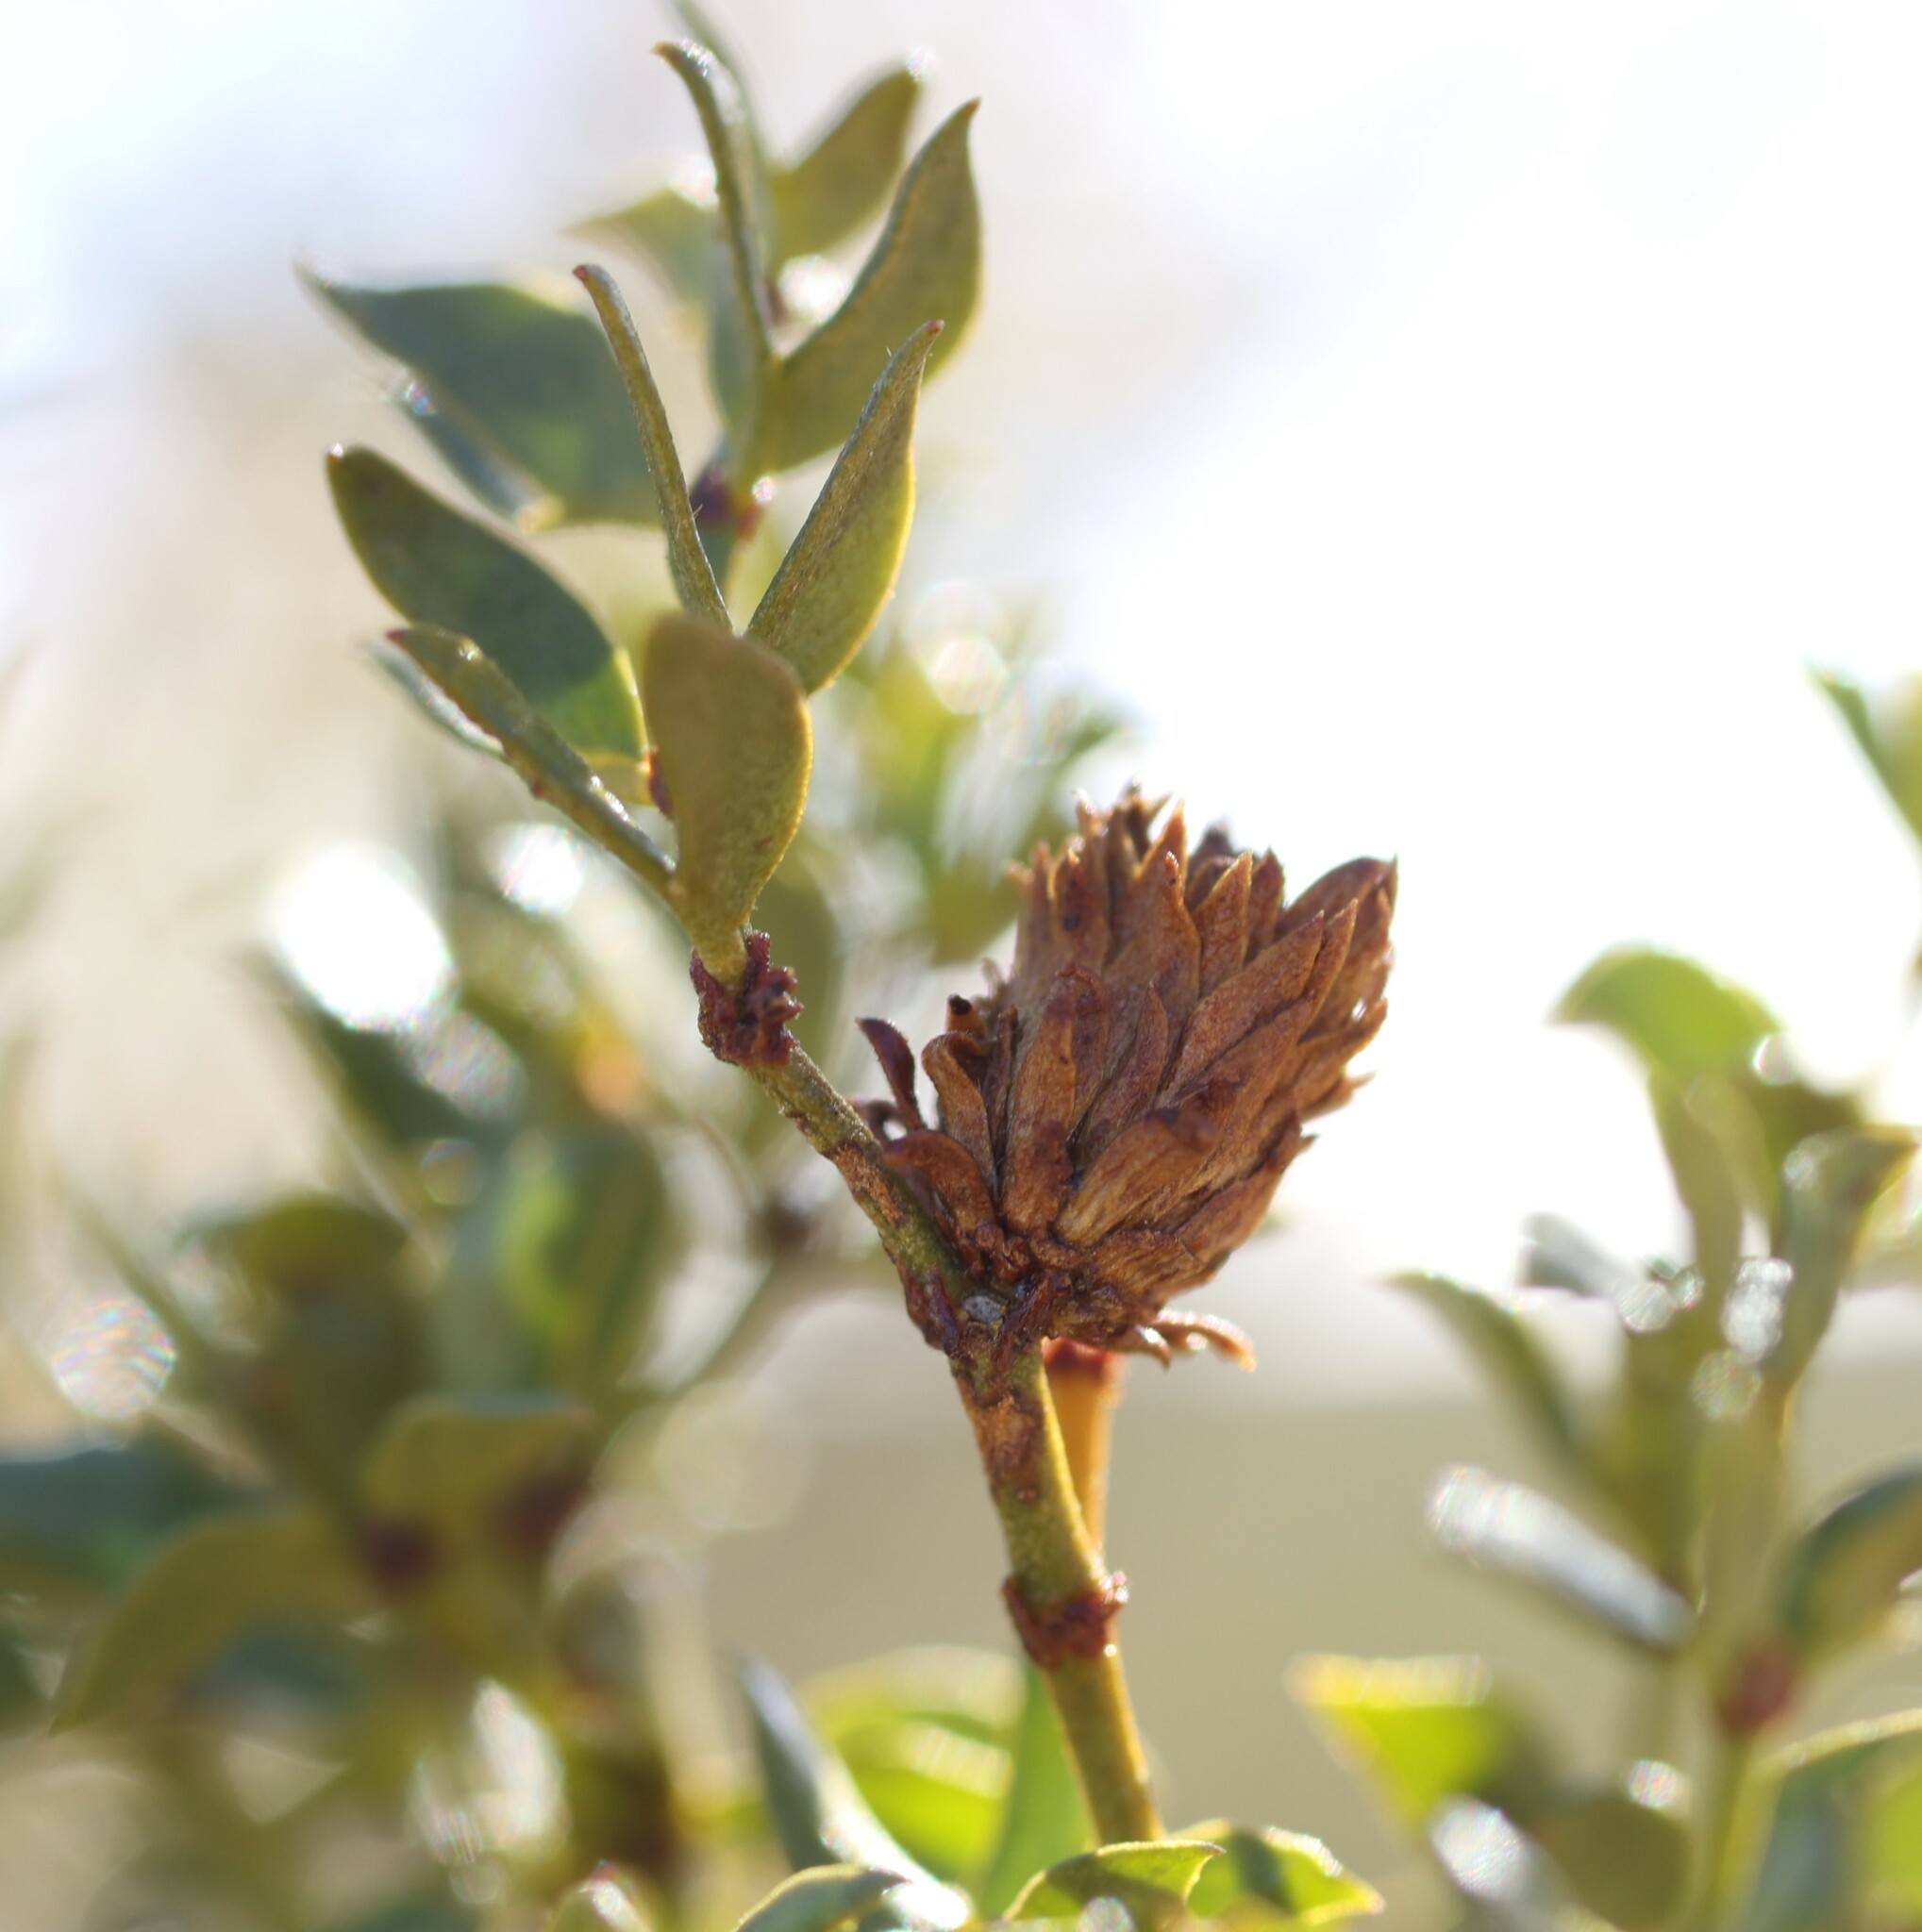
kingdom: Animalia
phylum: Arthropoda
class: Insecta
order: Diptera
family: Cecidomyiidae
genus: Asphondylia
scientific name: Asphondylia rosetta
